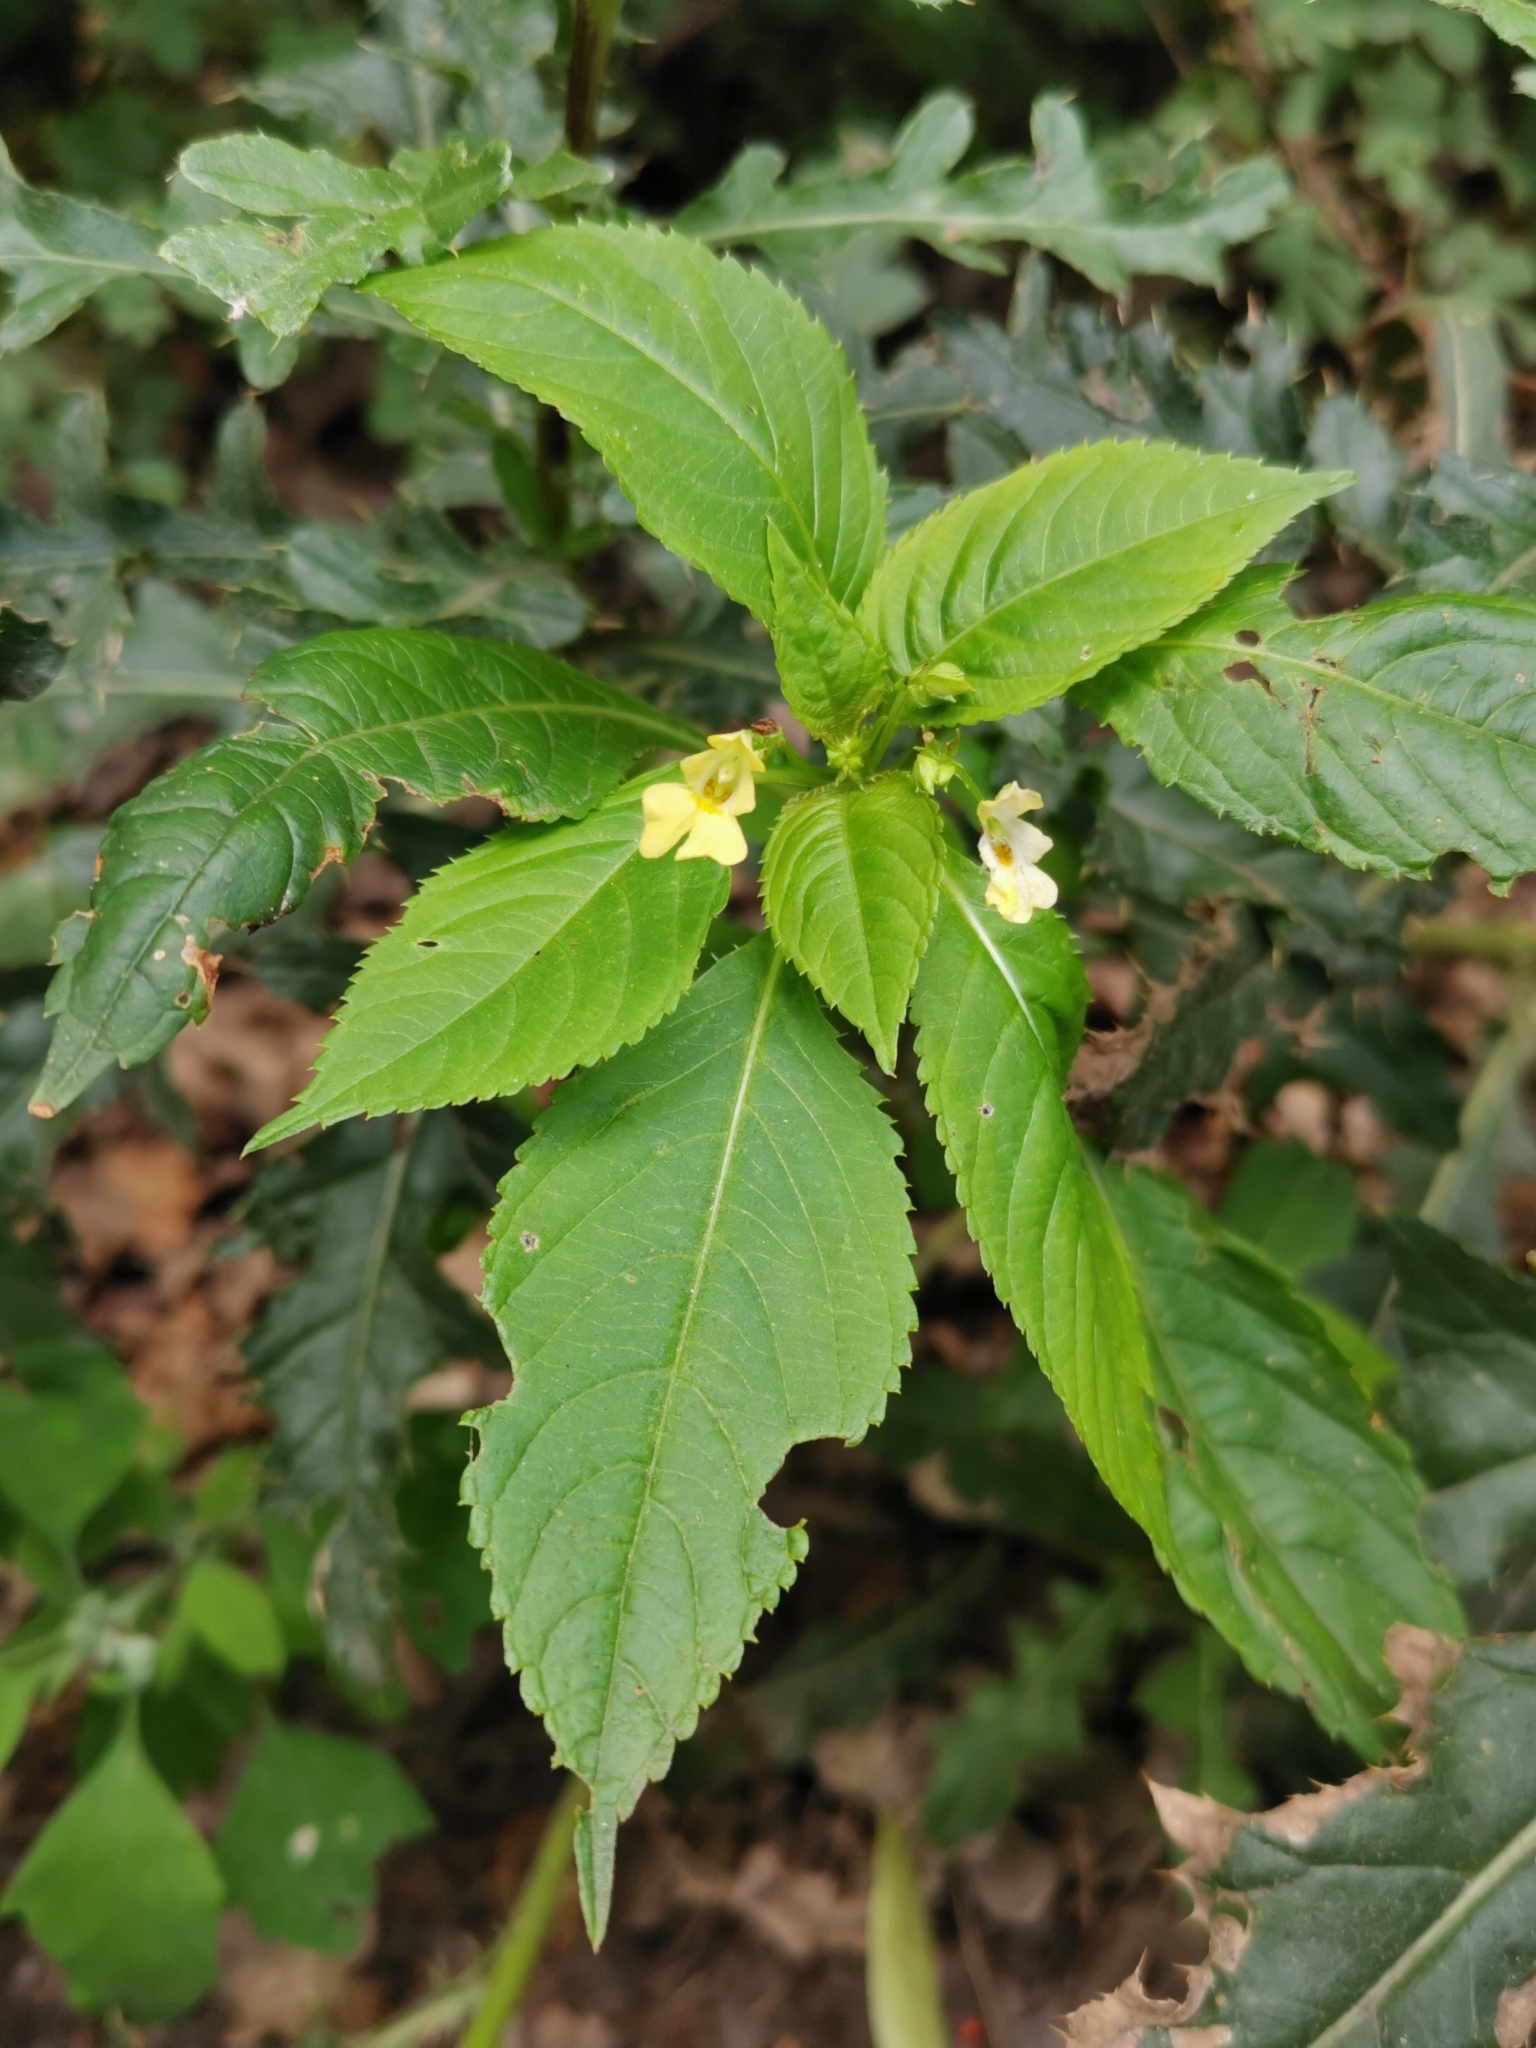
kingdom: Plantae
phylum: Tracheophyta
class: Magnoliopsida
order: Ericales
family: Balsaminaceae
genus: Impatiens
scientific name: Impatiens parviflora
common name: Small balsam
